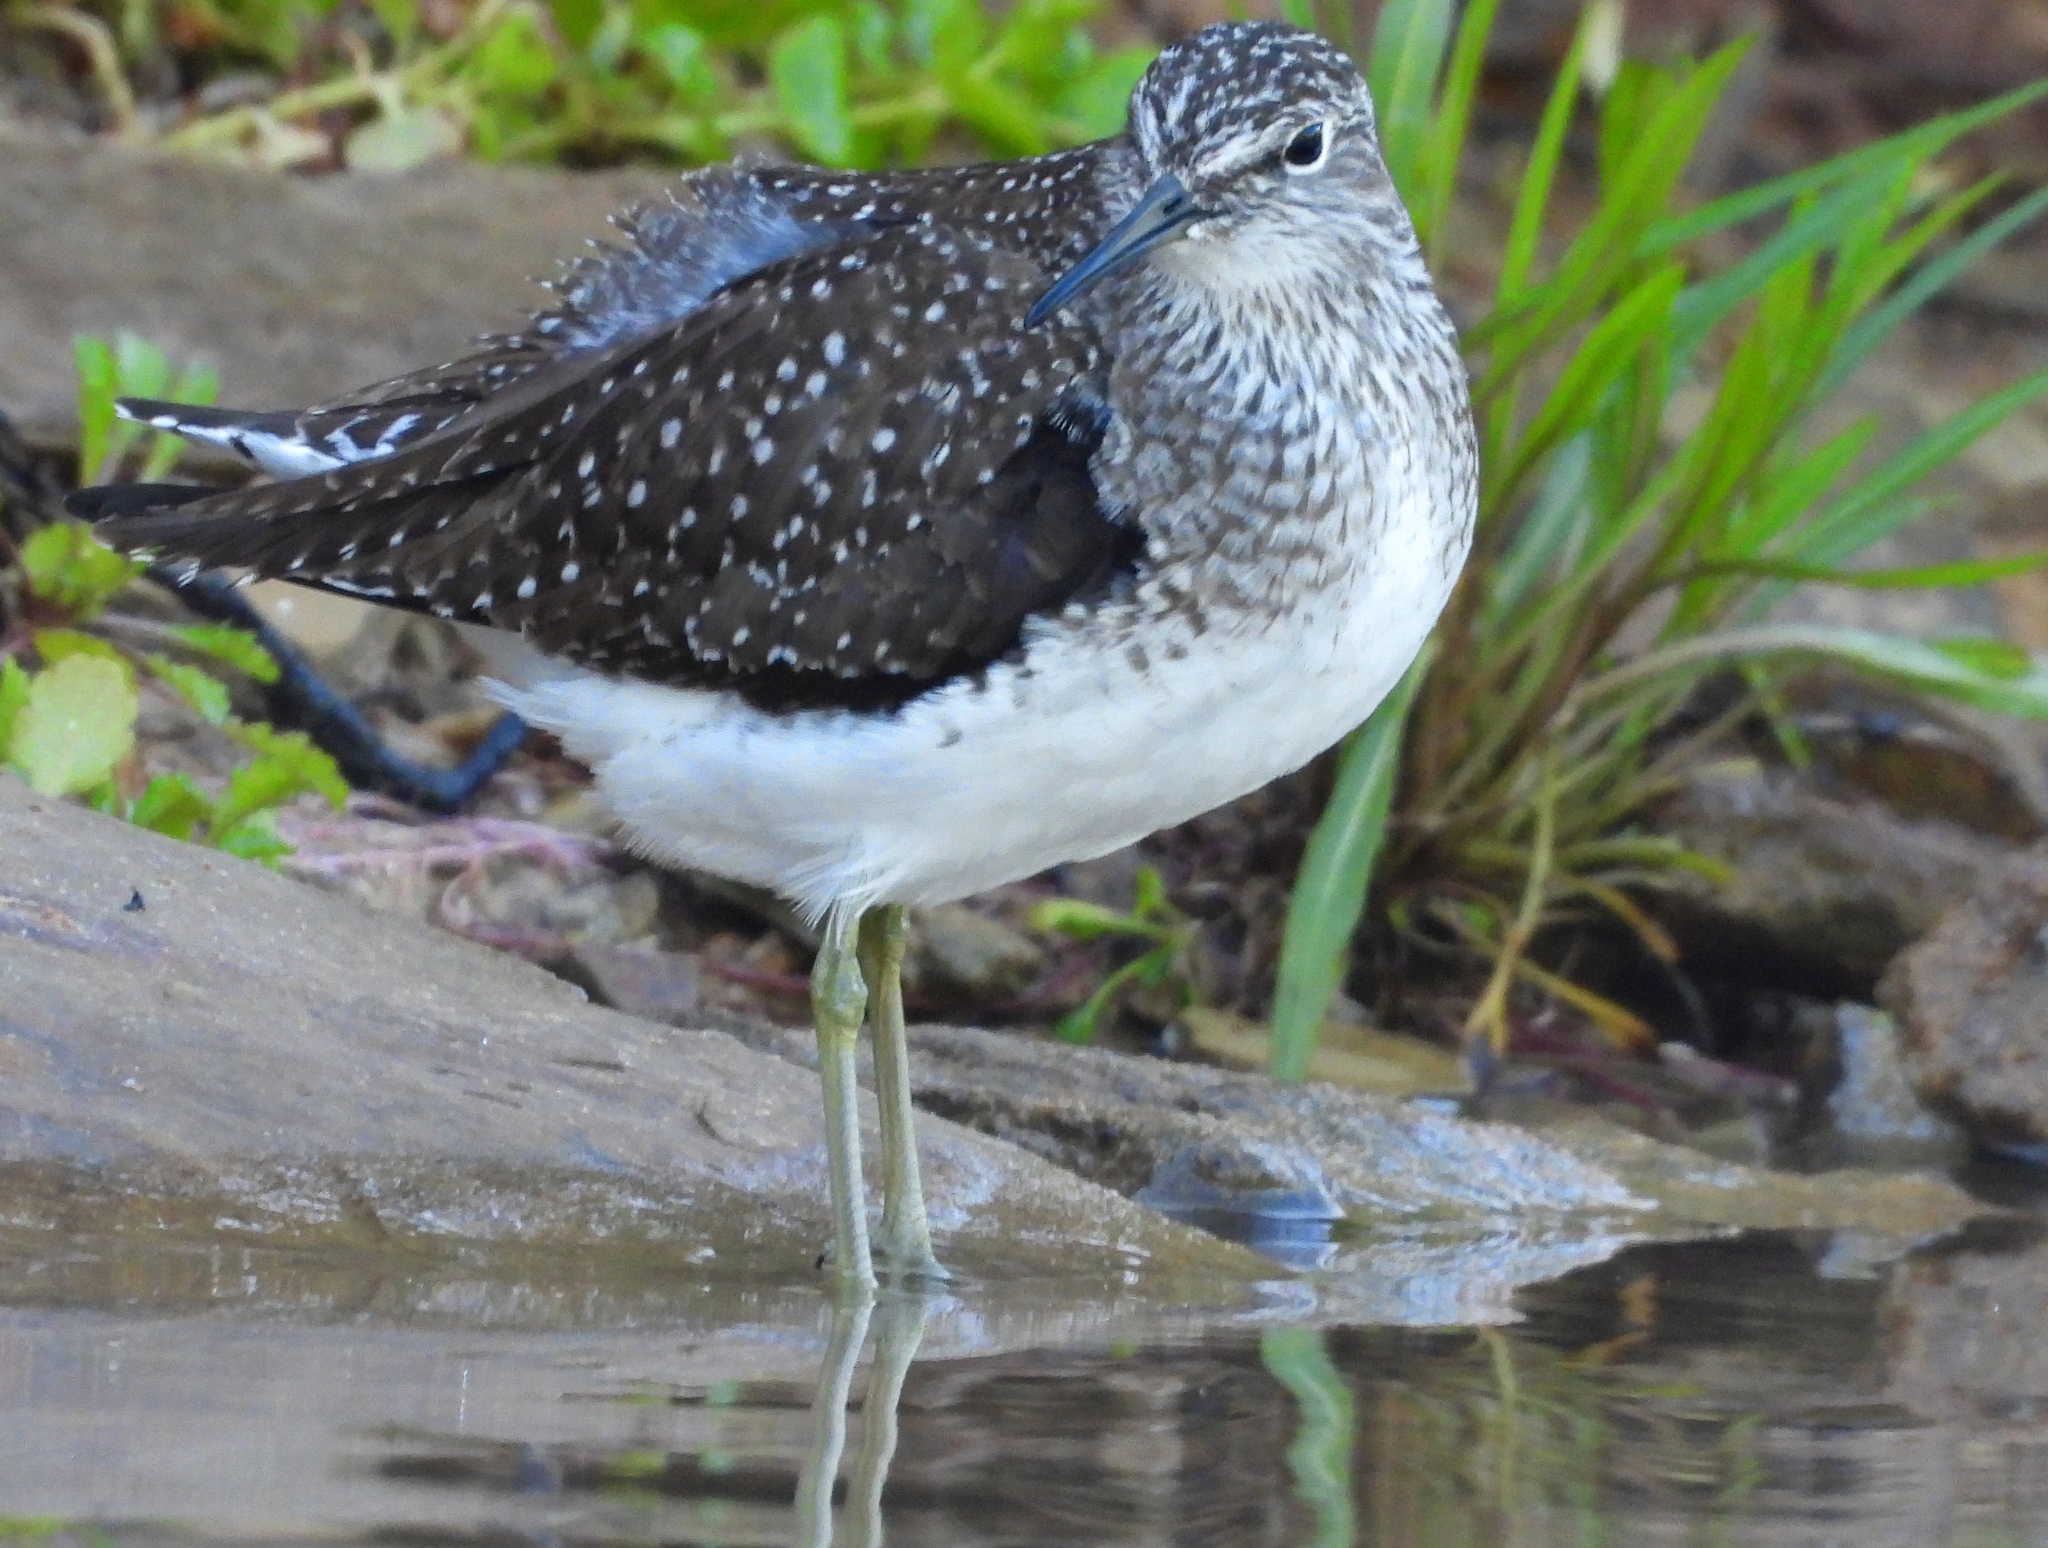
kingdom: Animalia
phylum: Chordata
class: Aves
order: Charadriiformes
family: Scolopacidae
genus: Tringa
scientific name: Tringa solitaria
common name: Solitary sandpiper
